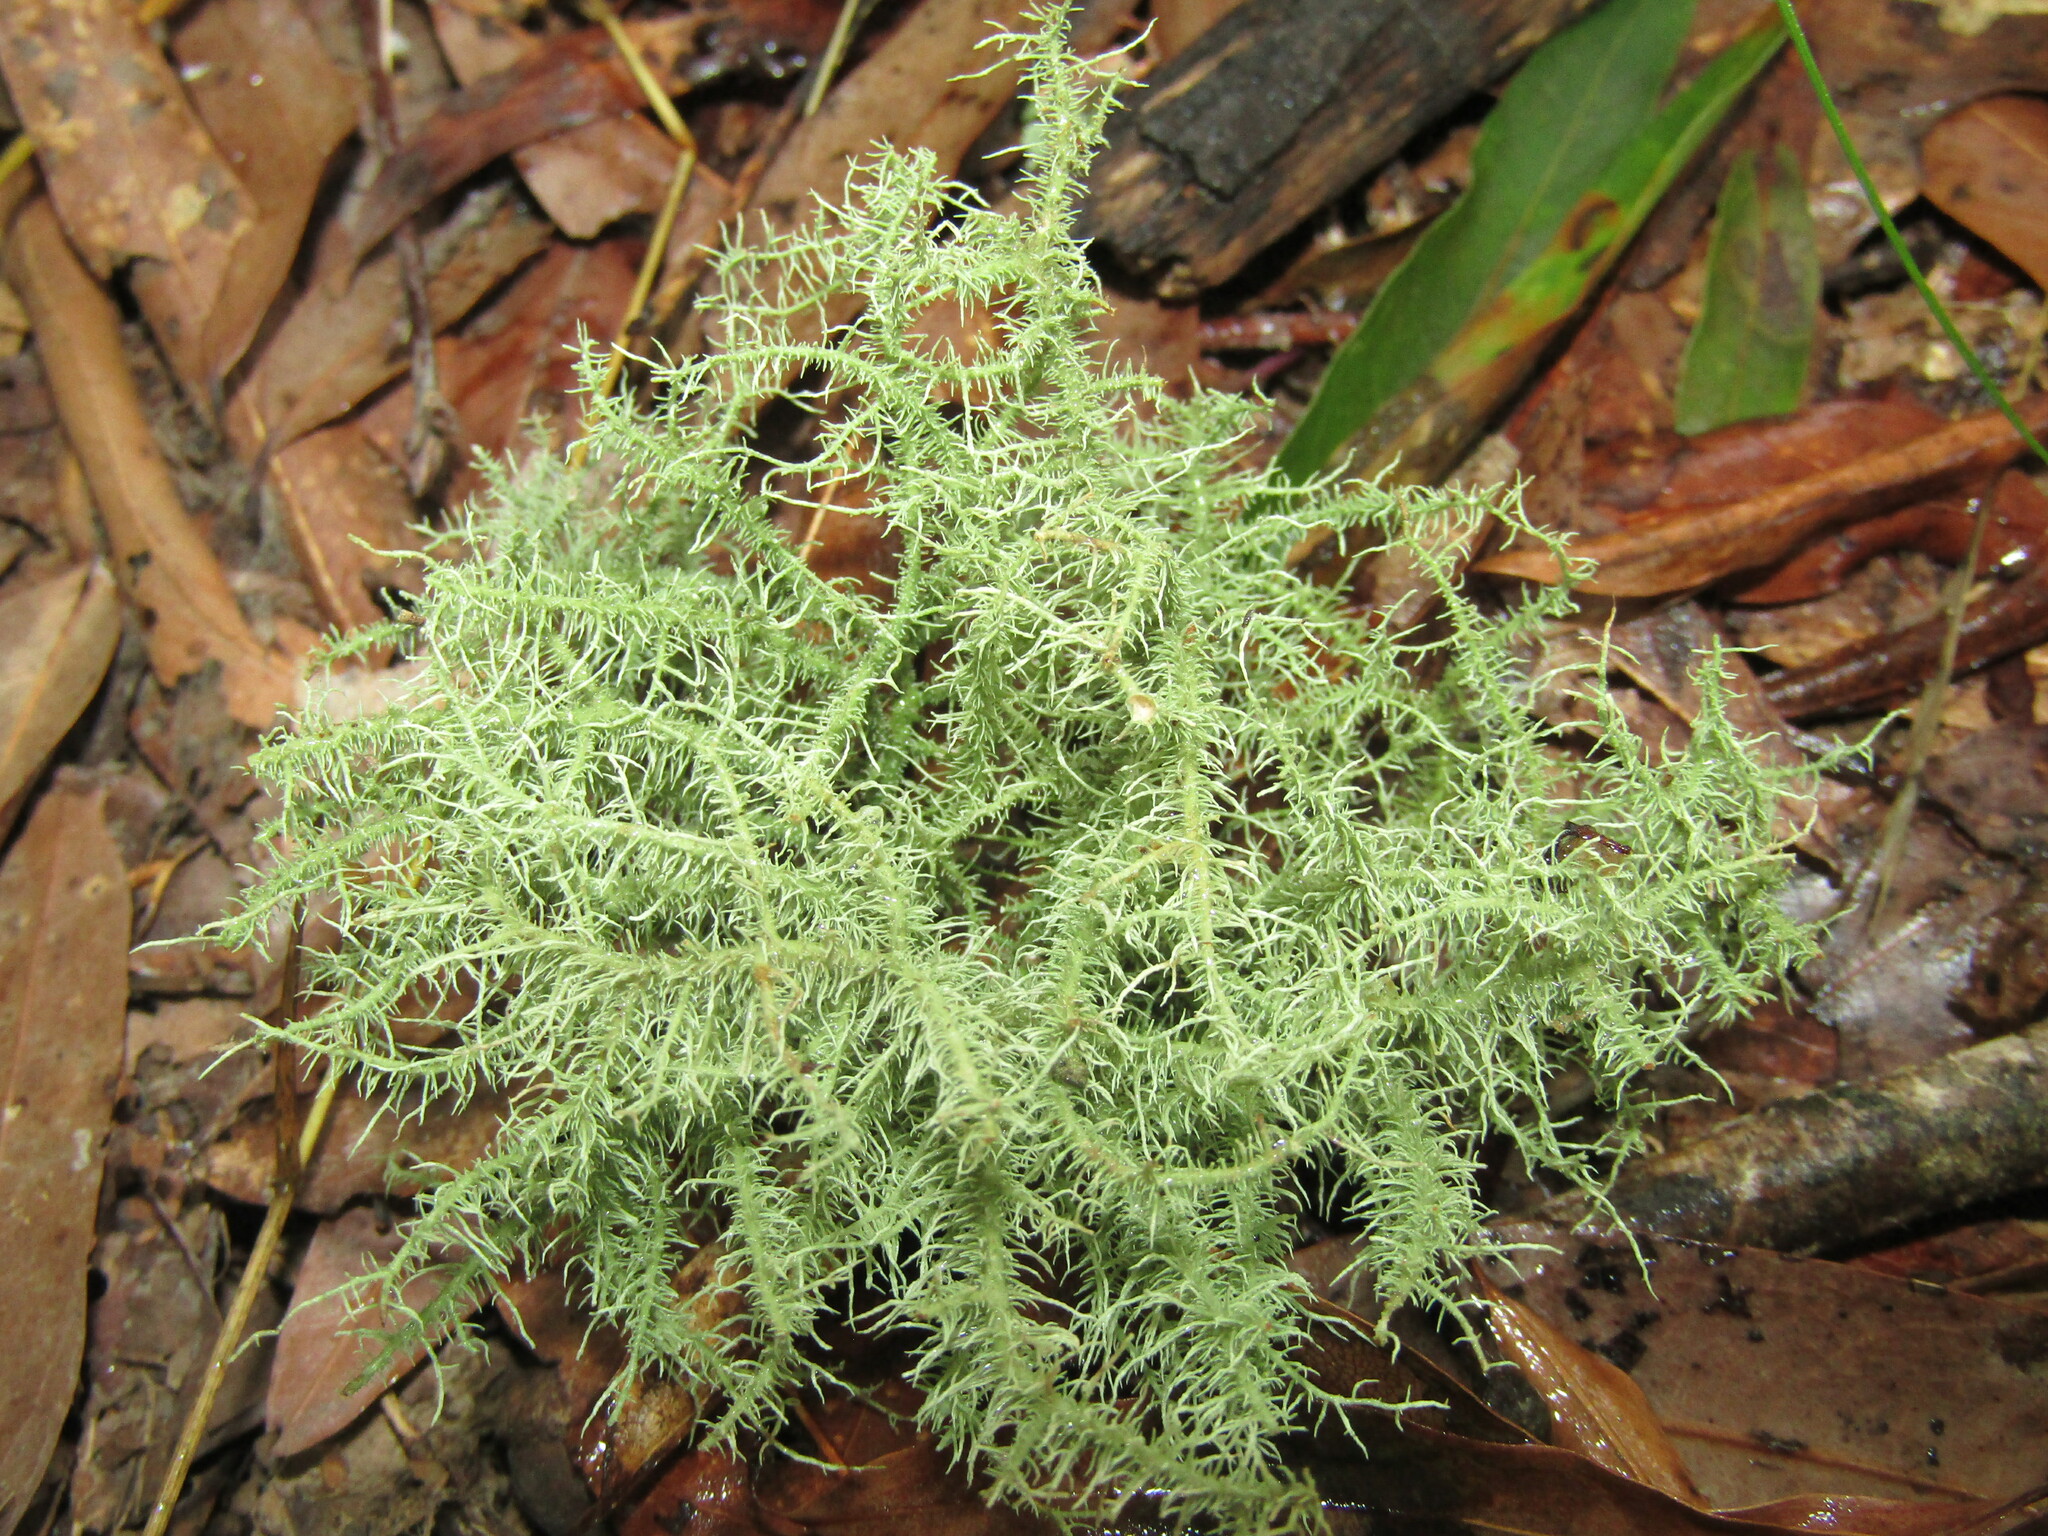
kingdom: Fungi
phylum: Ascomycota
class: Lecanoromycetes
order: Lecanorales
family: Parmeliaceae
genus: Usnea
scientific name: Usnea strigosa
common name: Bushy beard lichen
